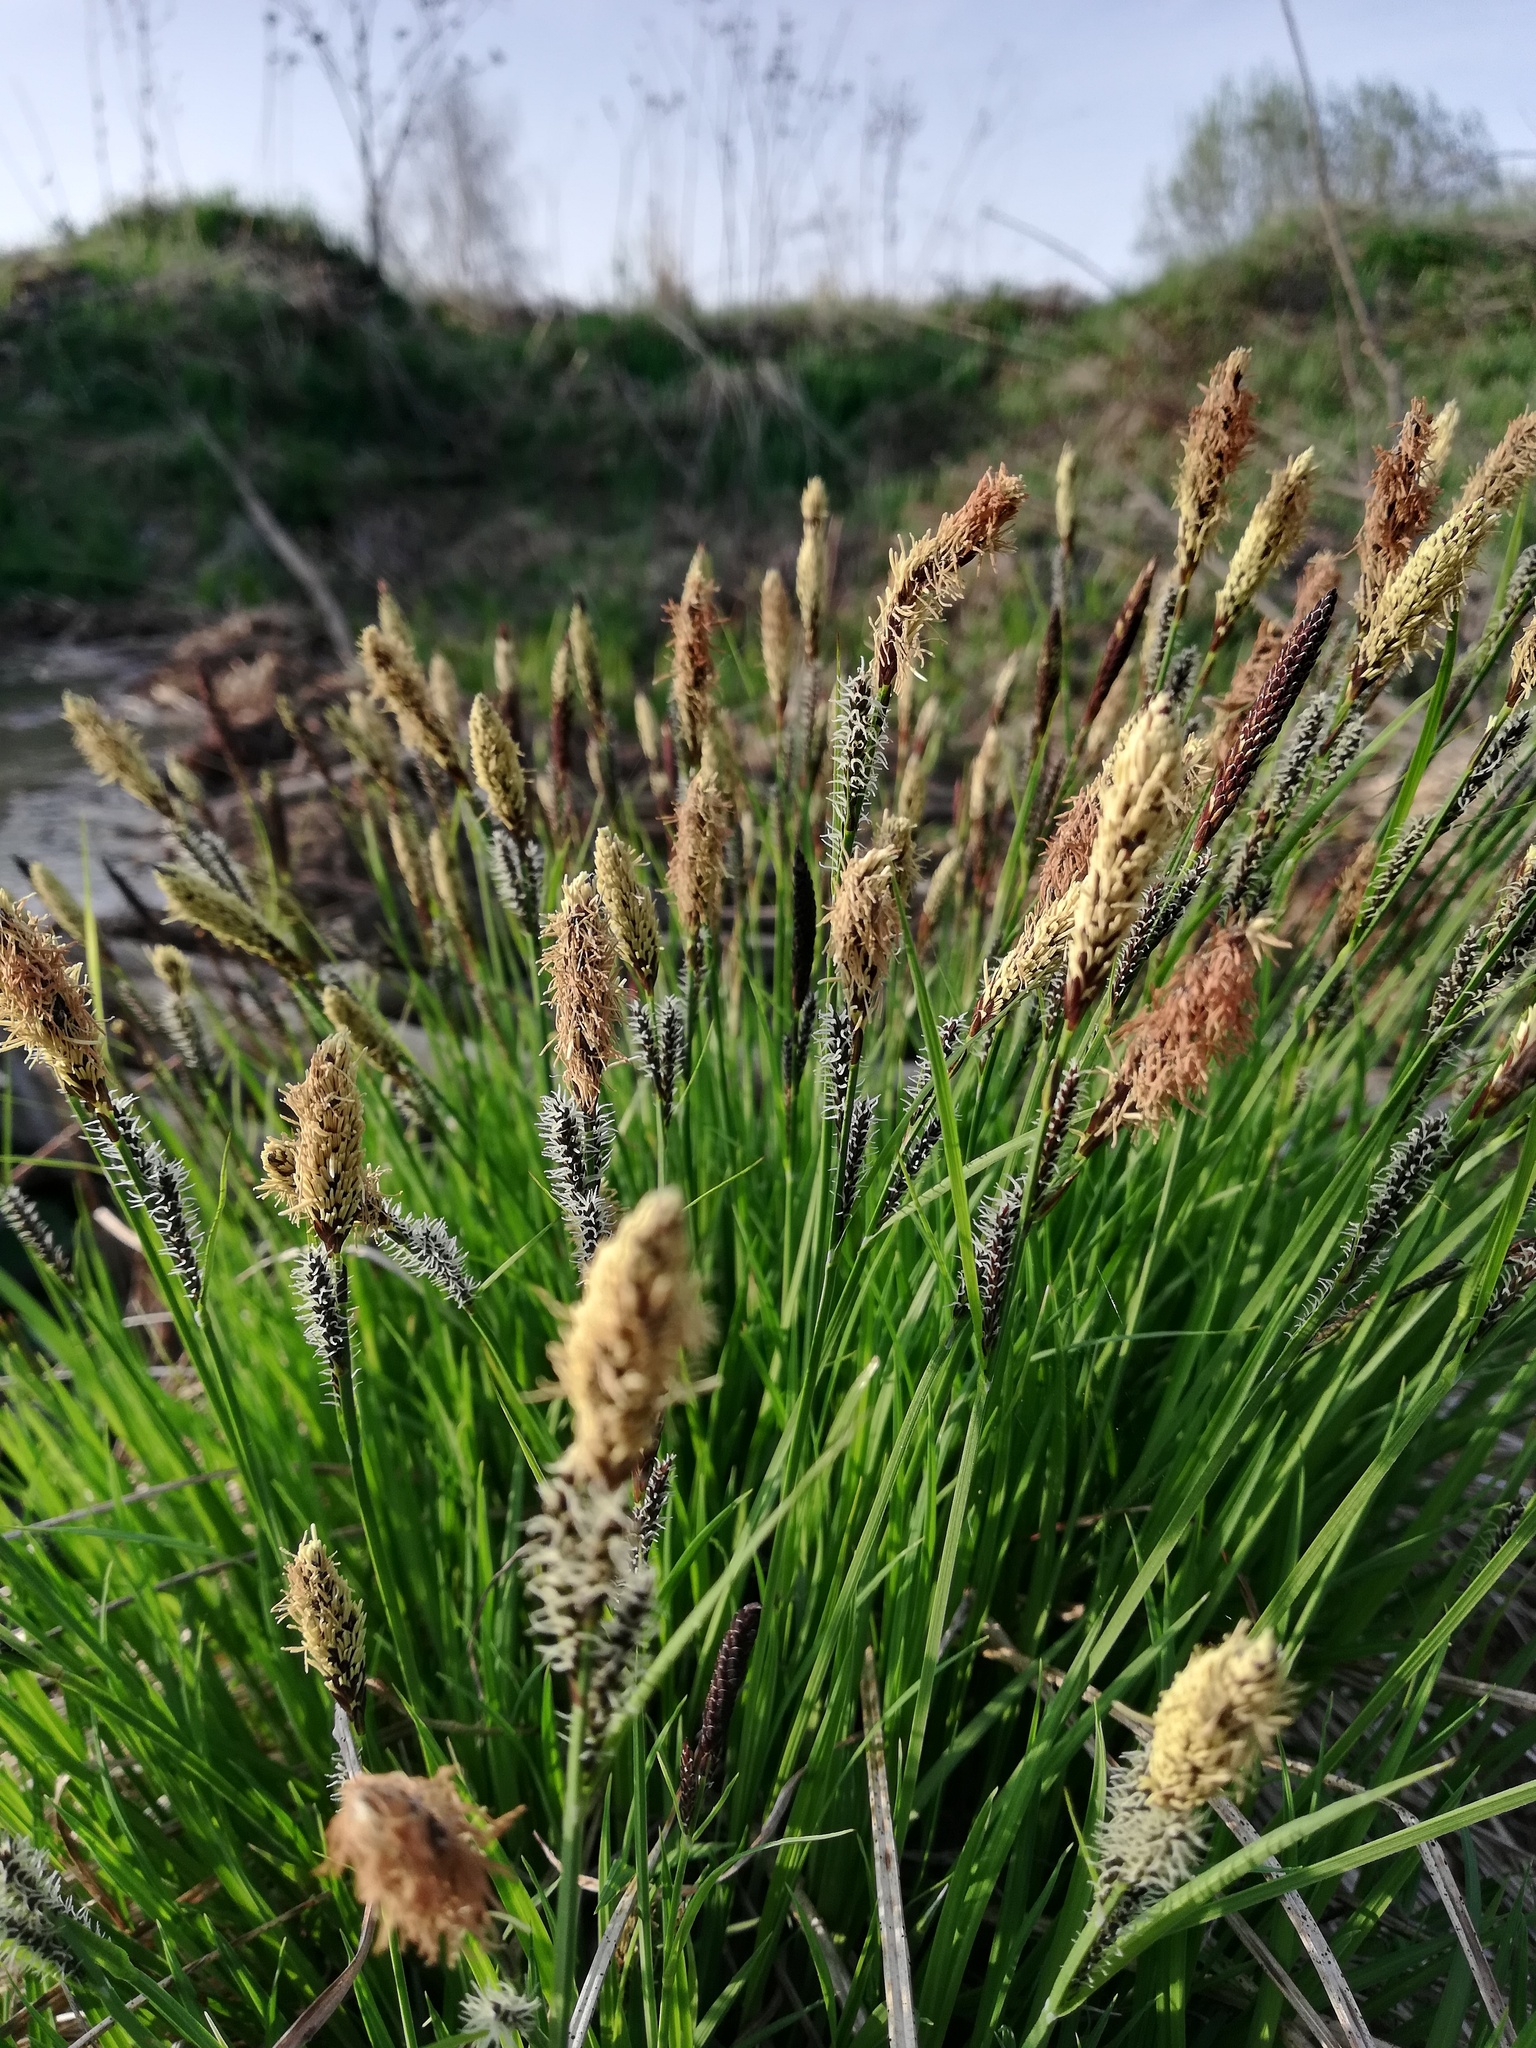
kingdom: Plantae
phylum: Tracheophyta
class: Liliopsida
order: Poales
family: Cyperaceae
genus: Carex
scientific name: Carex cespitosa
